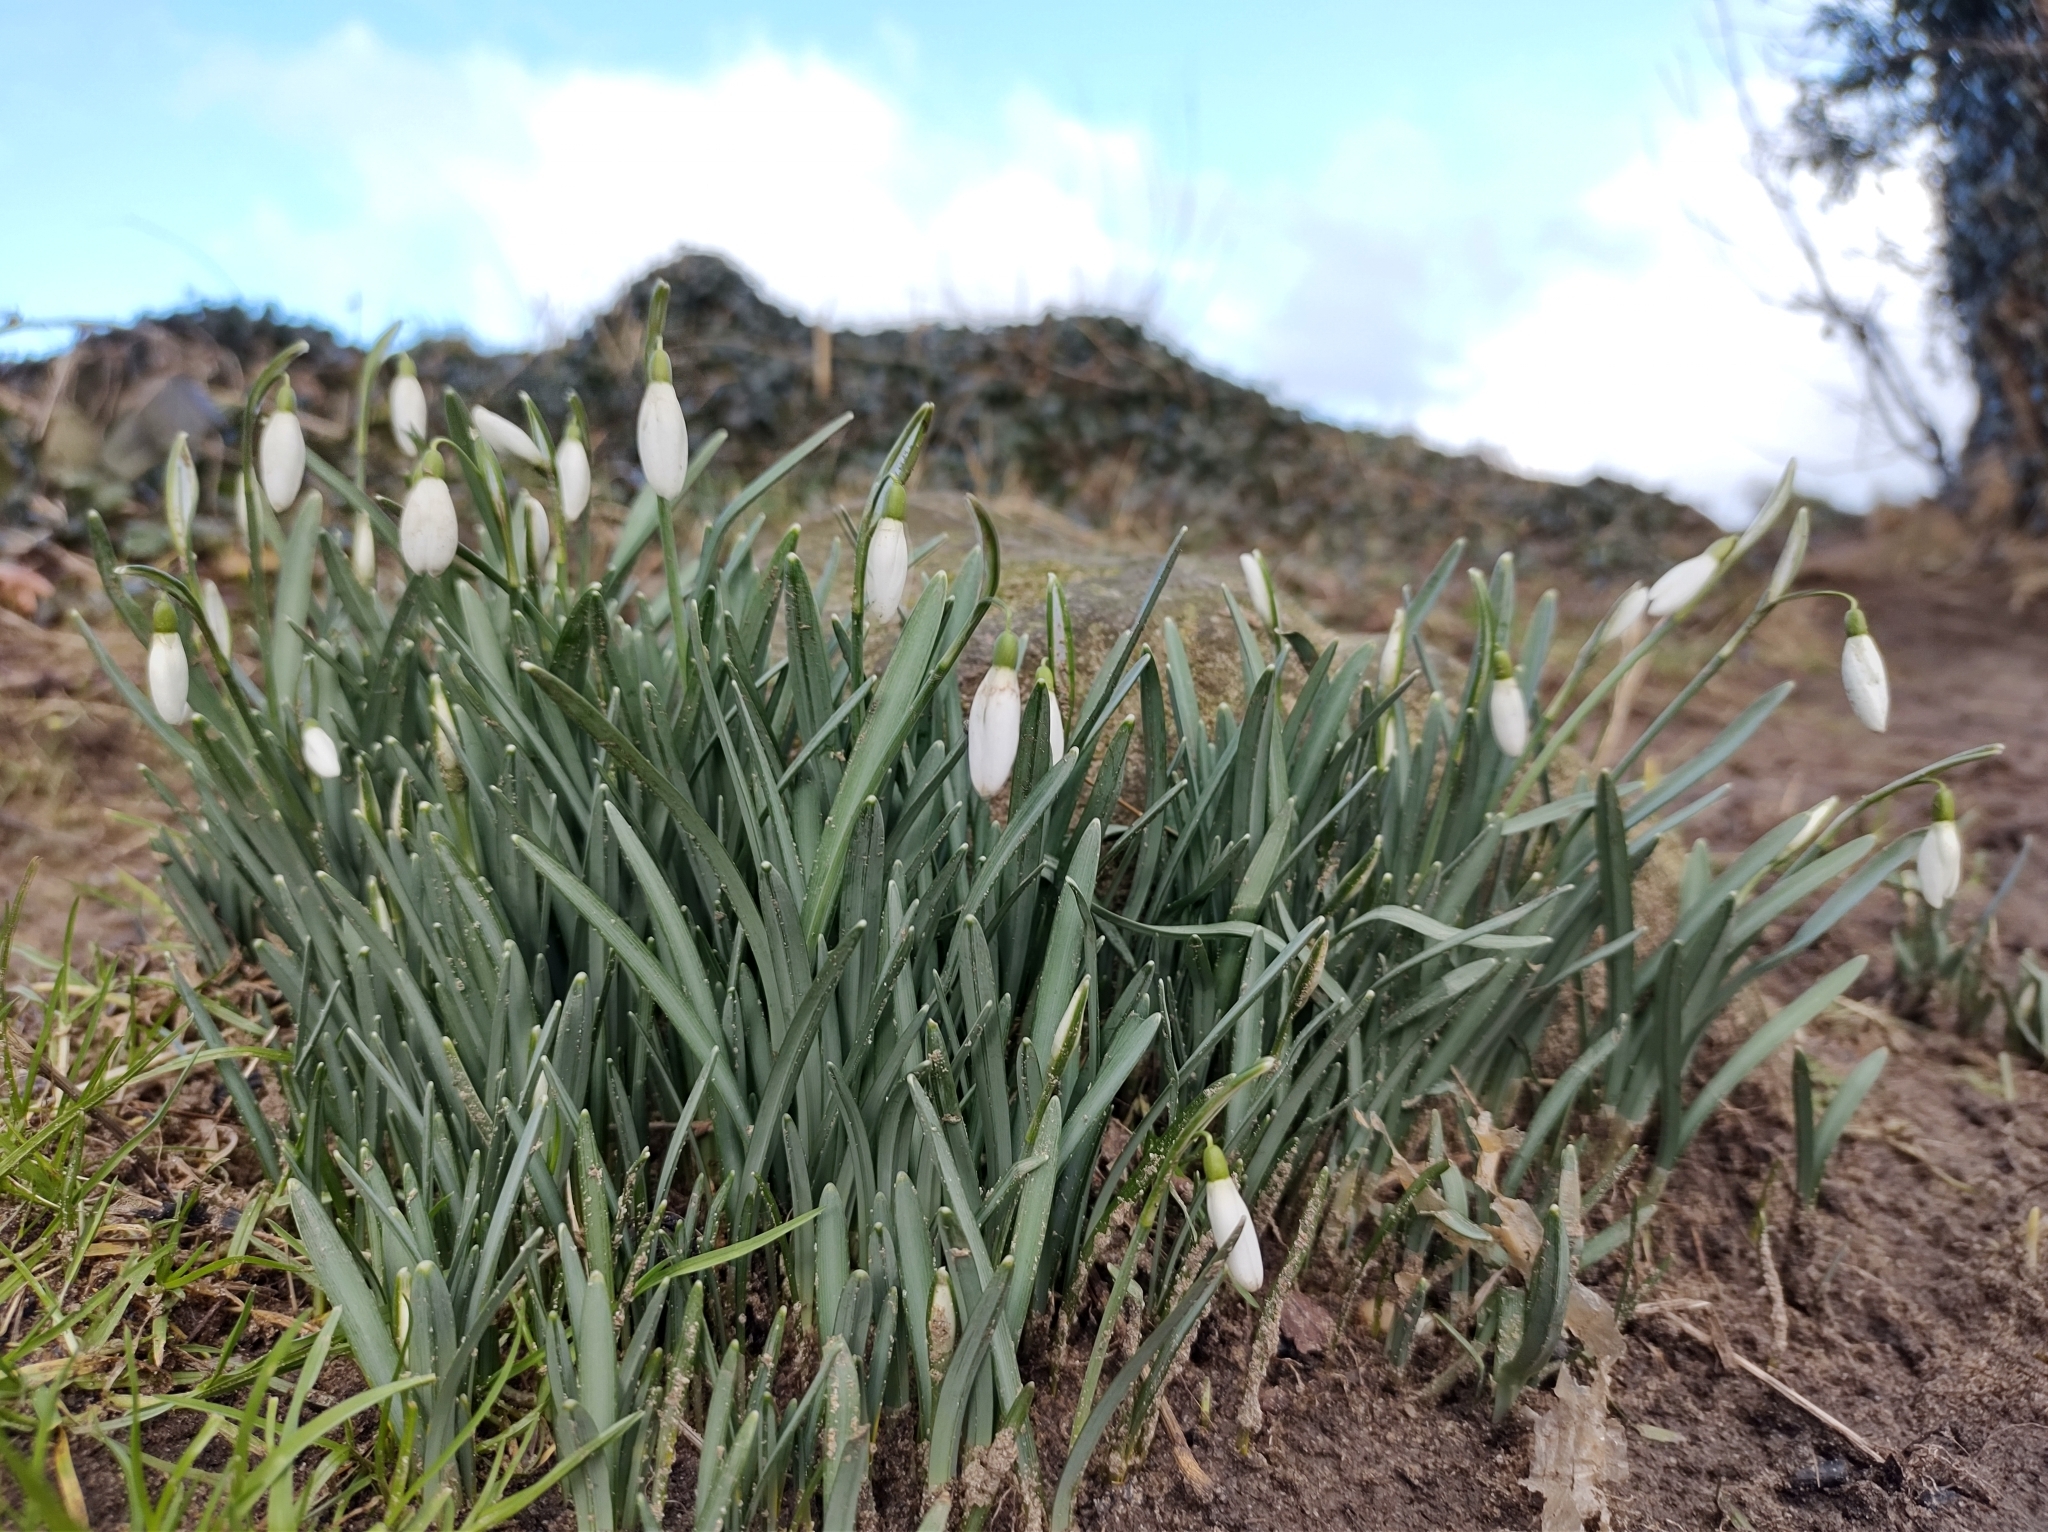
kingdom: Plantae
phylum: Tracheophyta
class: Liliopsida
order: Asparagales
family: Amaryllidaceae
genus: Galanthus
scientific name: Galanthus nivalis
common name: Snowdrop
